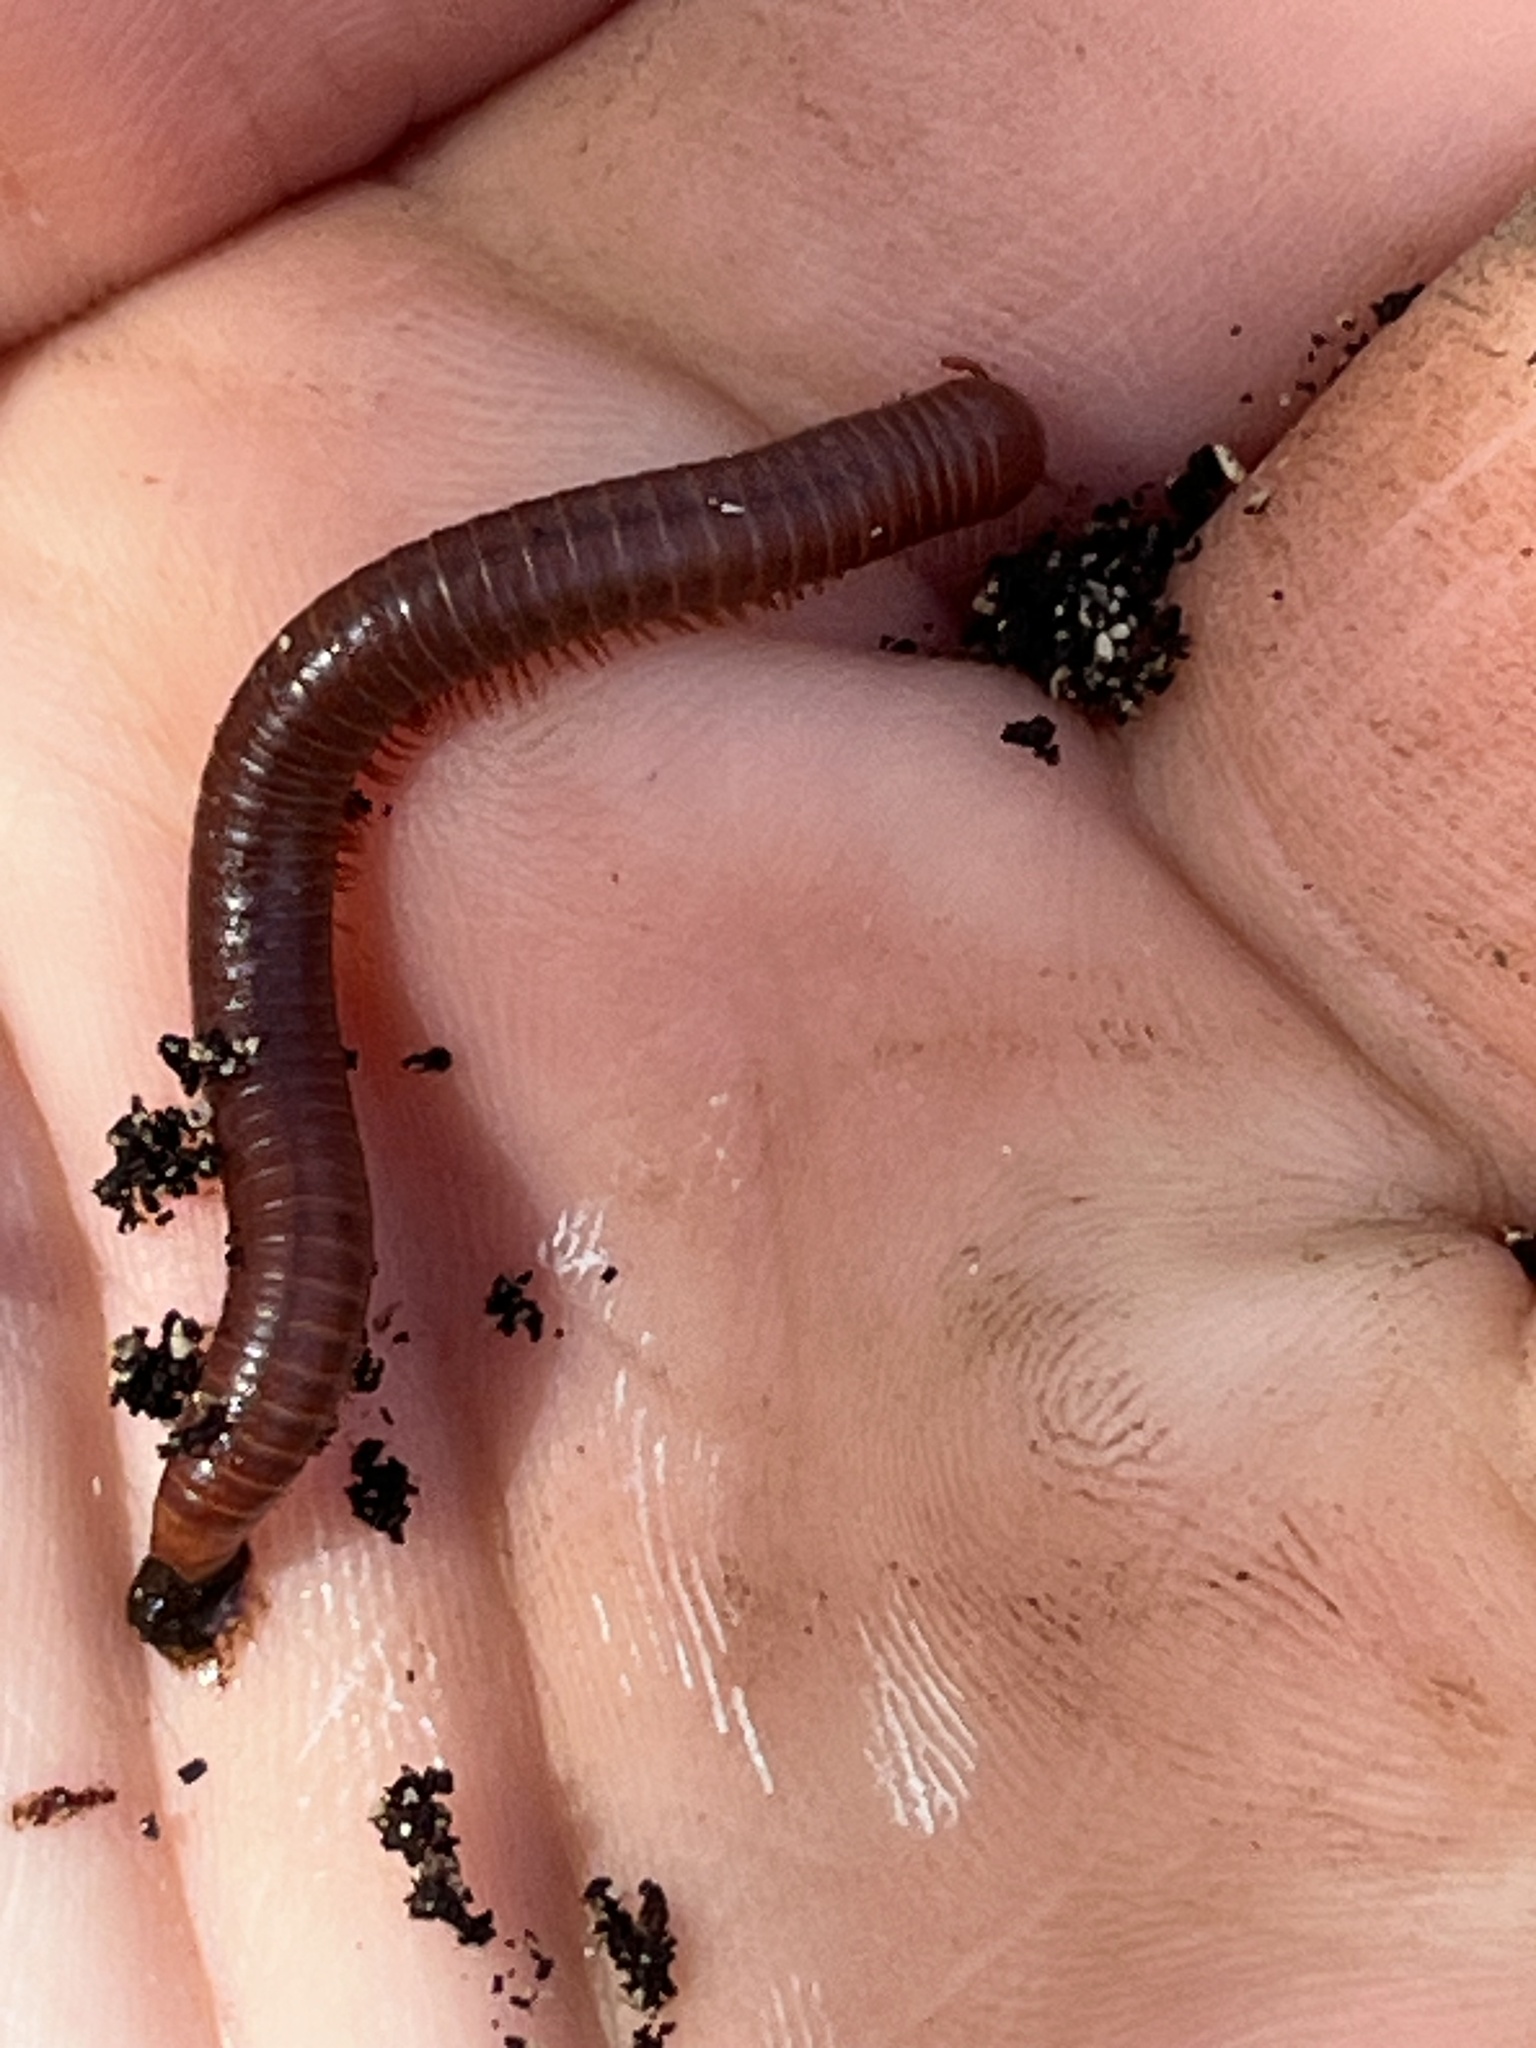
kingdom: Animalia
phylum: Arthropoda
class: Diplopoda
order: Spirobolida
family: Pachybolidae
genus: Trigoniulus
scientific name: Trigoniulus corallinus
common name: Millipede
